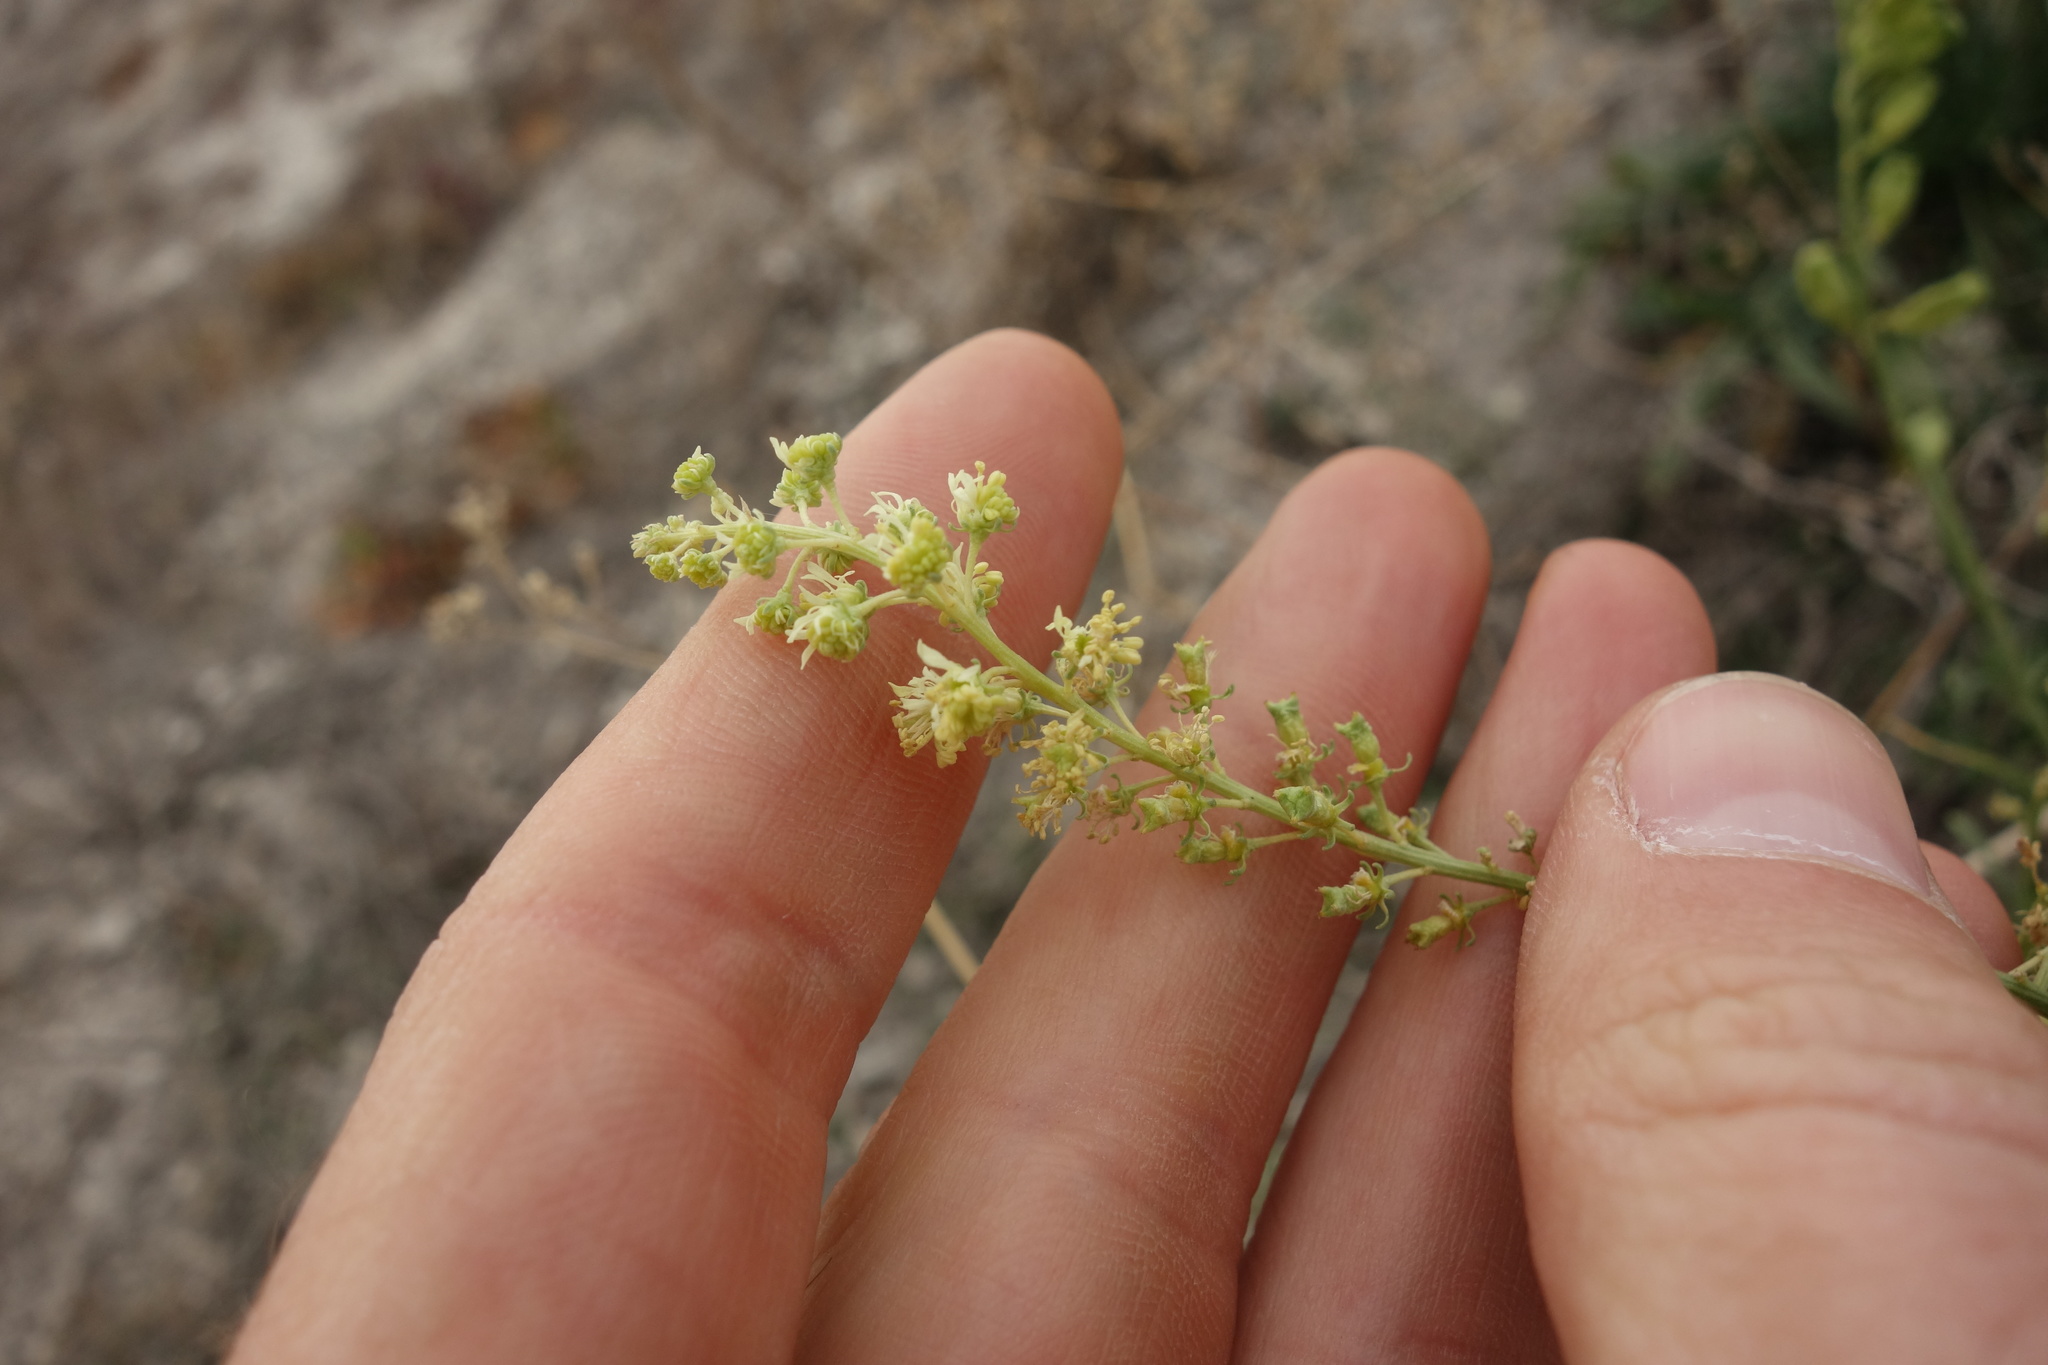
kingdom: Plantae
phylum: Tracheophyta
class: Magnoliopsida
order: Brassicales
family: Resedaceae
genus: Reseda
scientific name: Reseda lutea
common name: Wild mignonette
